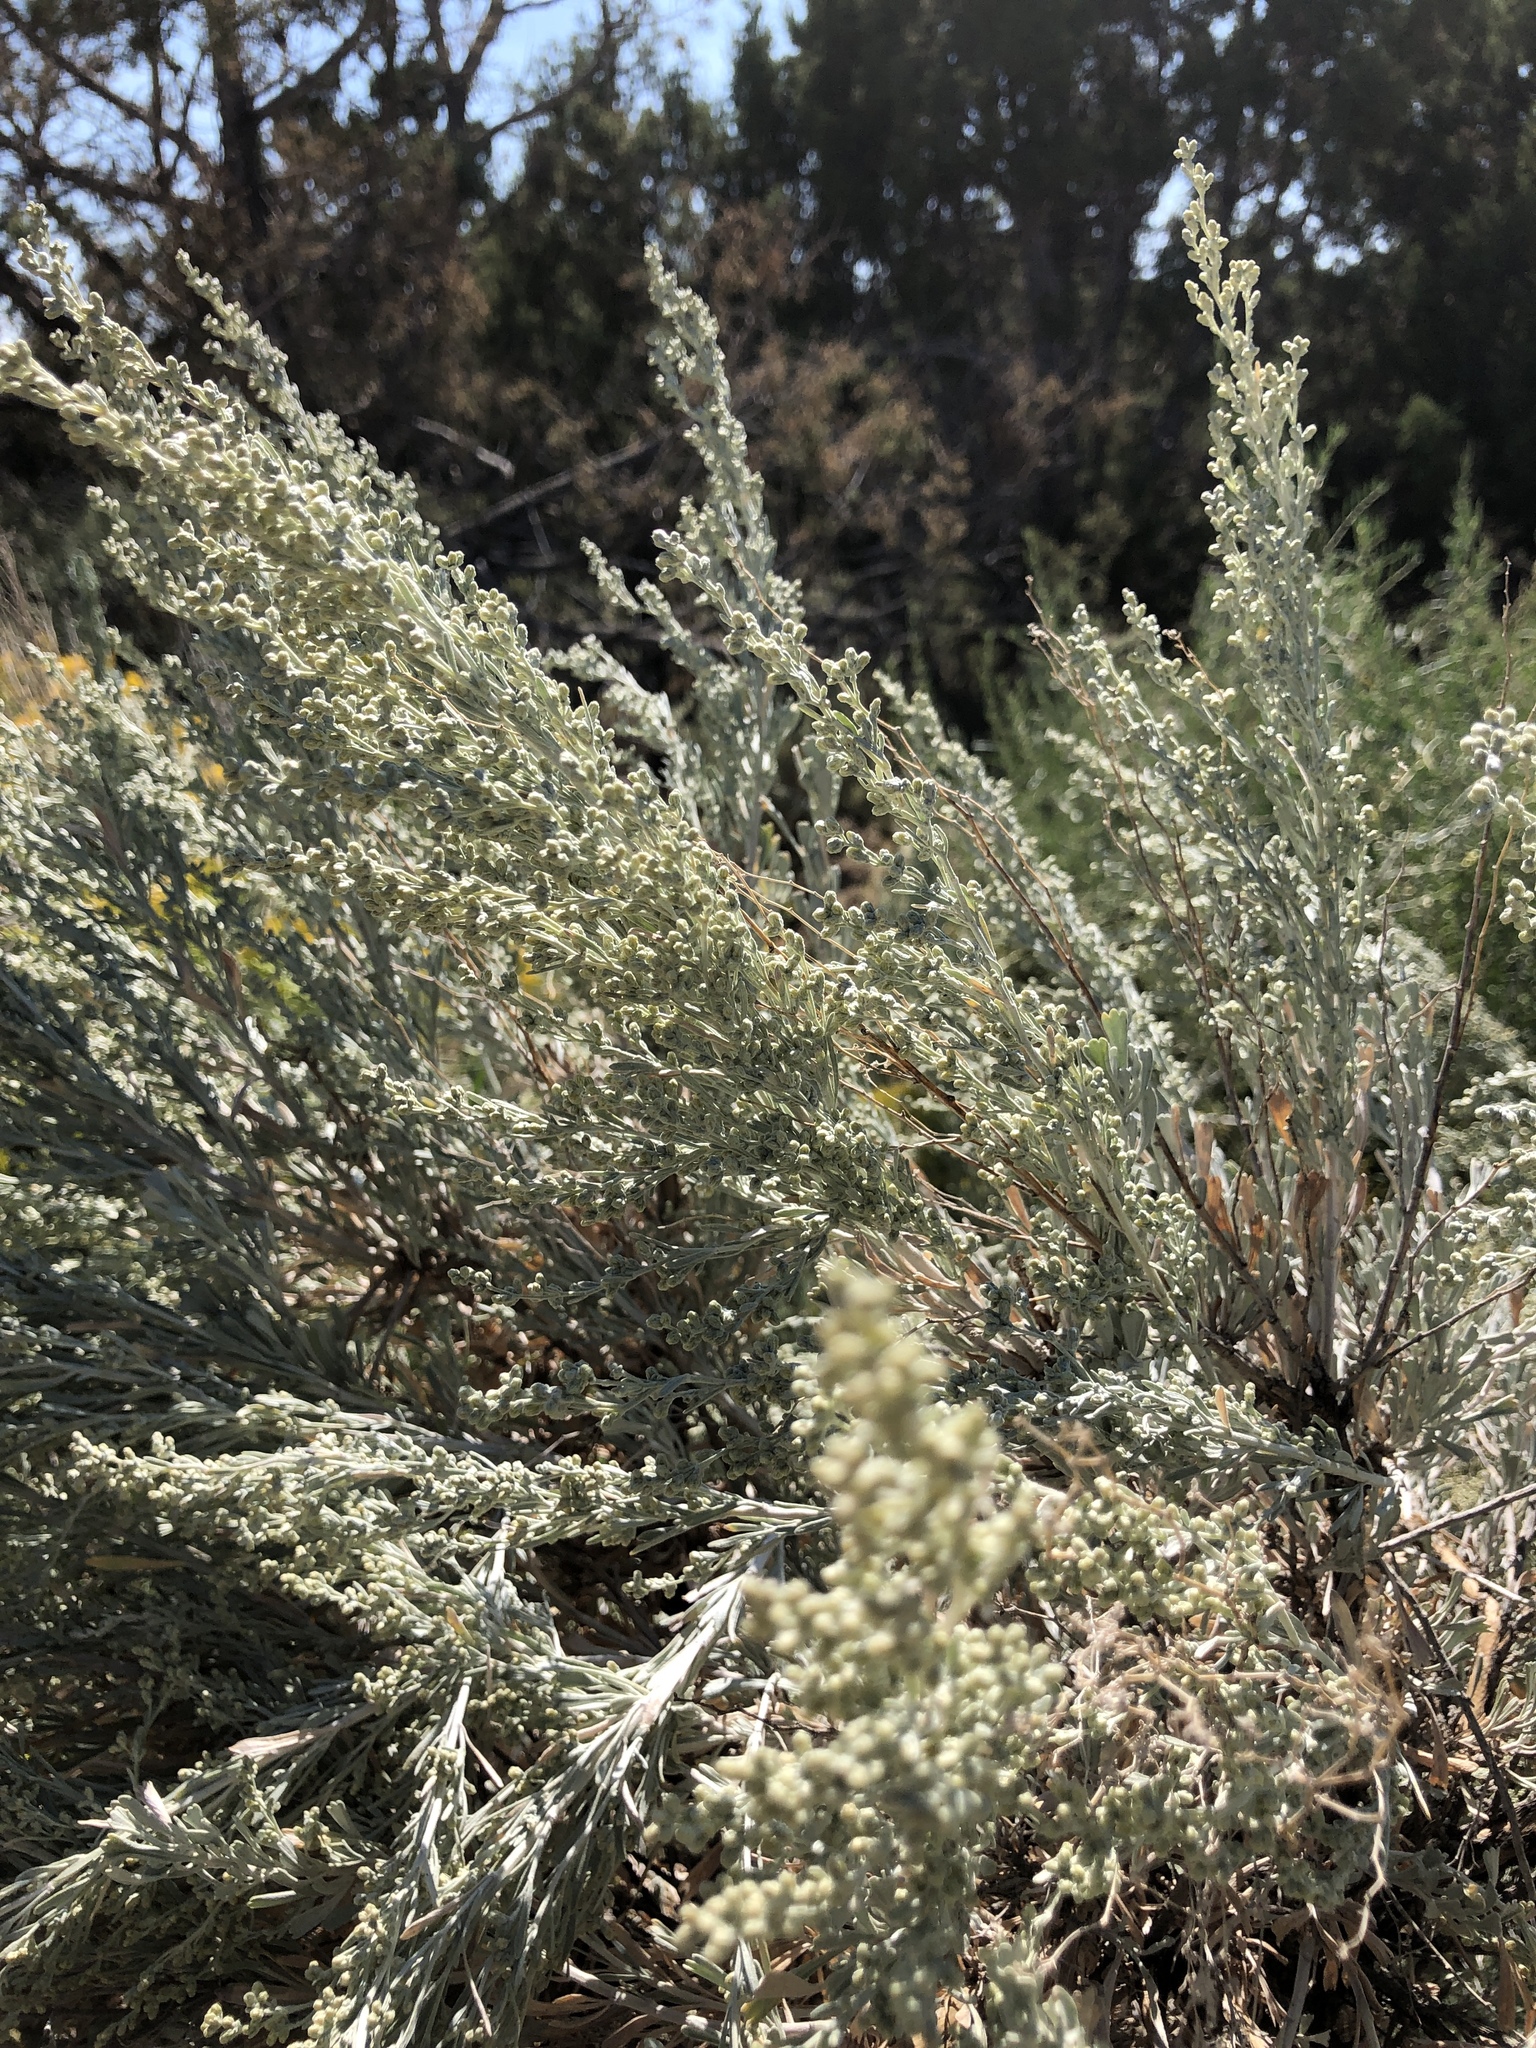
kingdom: Plantae
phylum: Tracheophyta
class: Magnoliopsida
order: Asterales
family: Asteraceae
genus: Artemisia
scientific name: Artemisia tridentata
